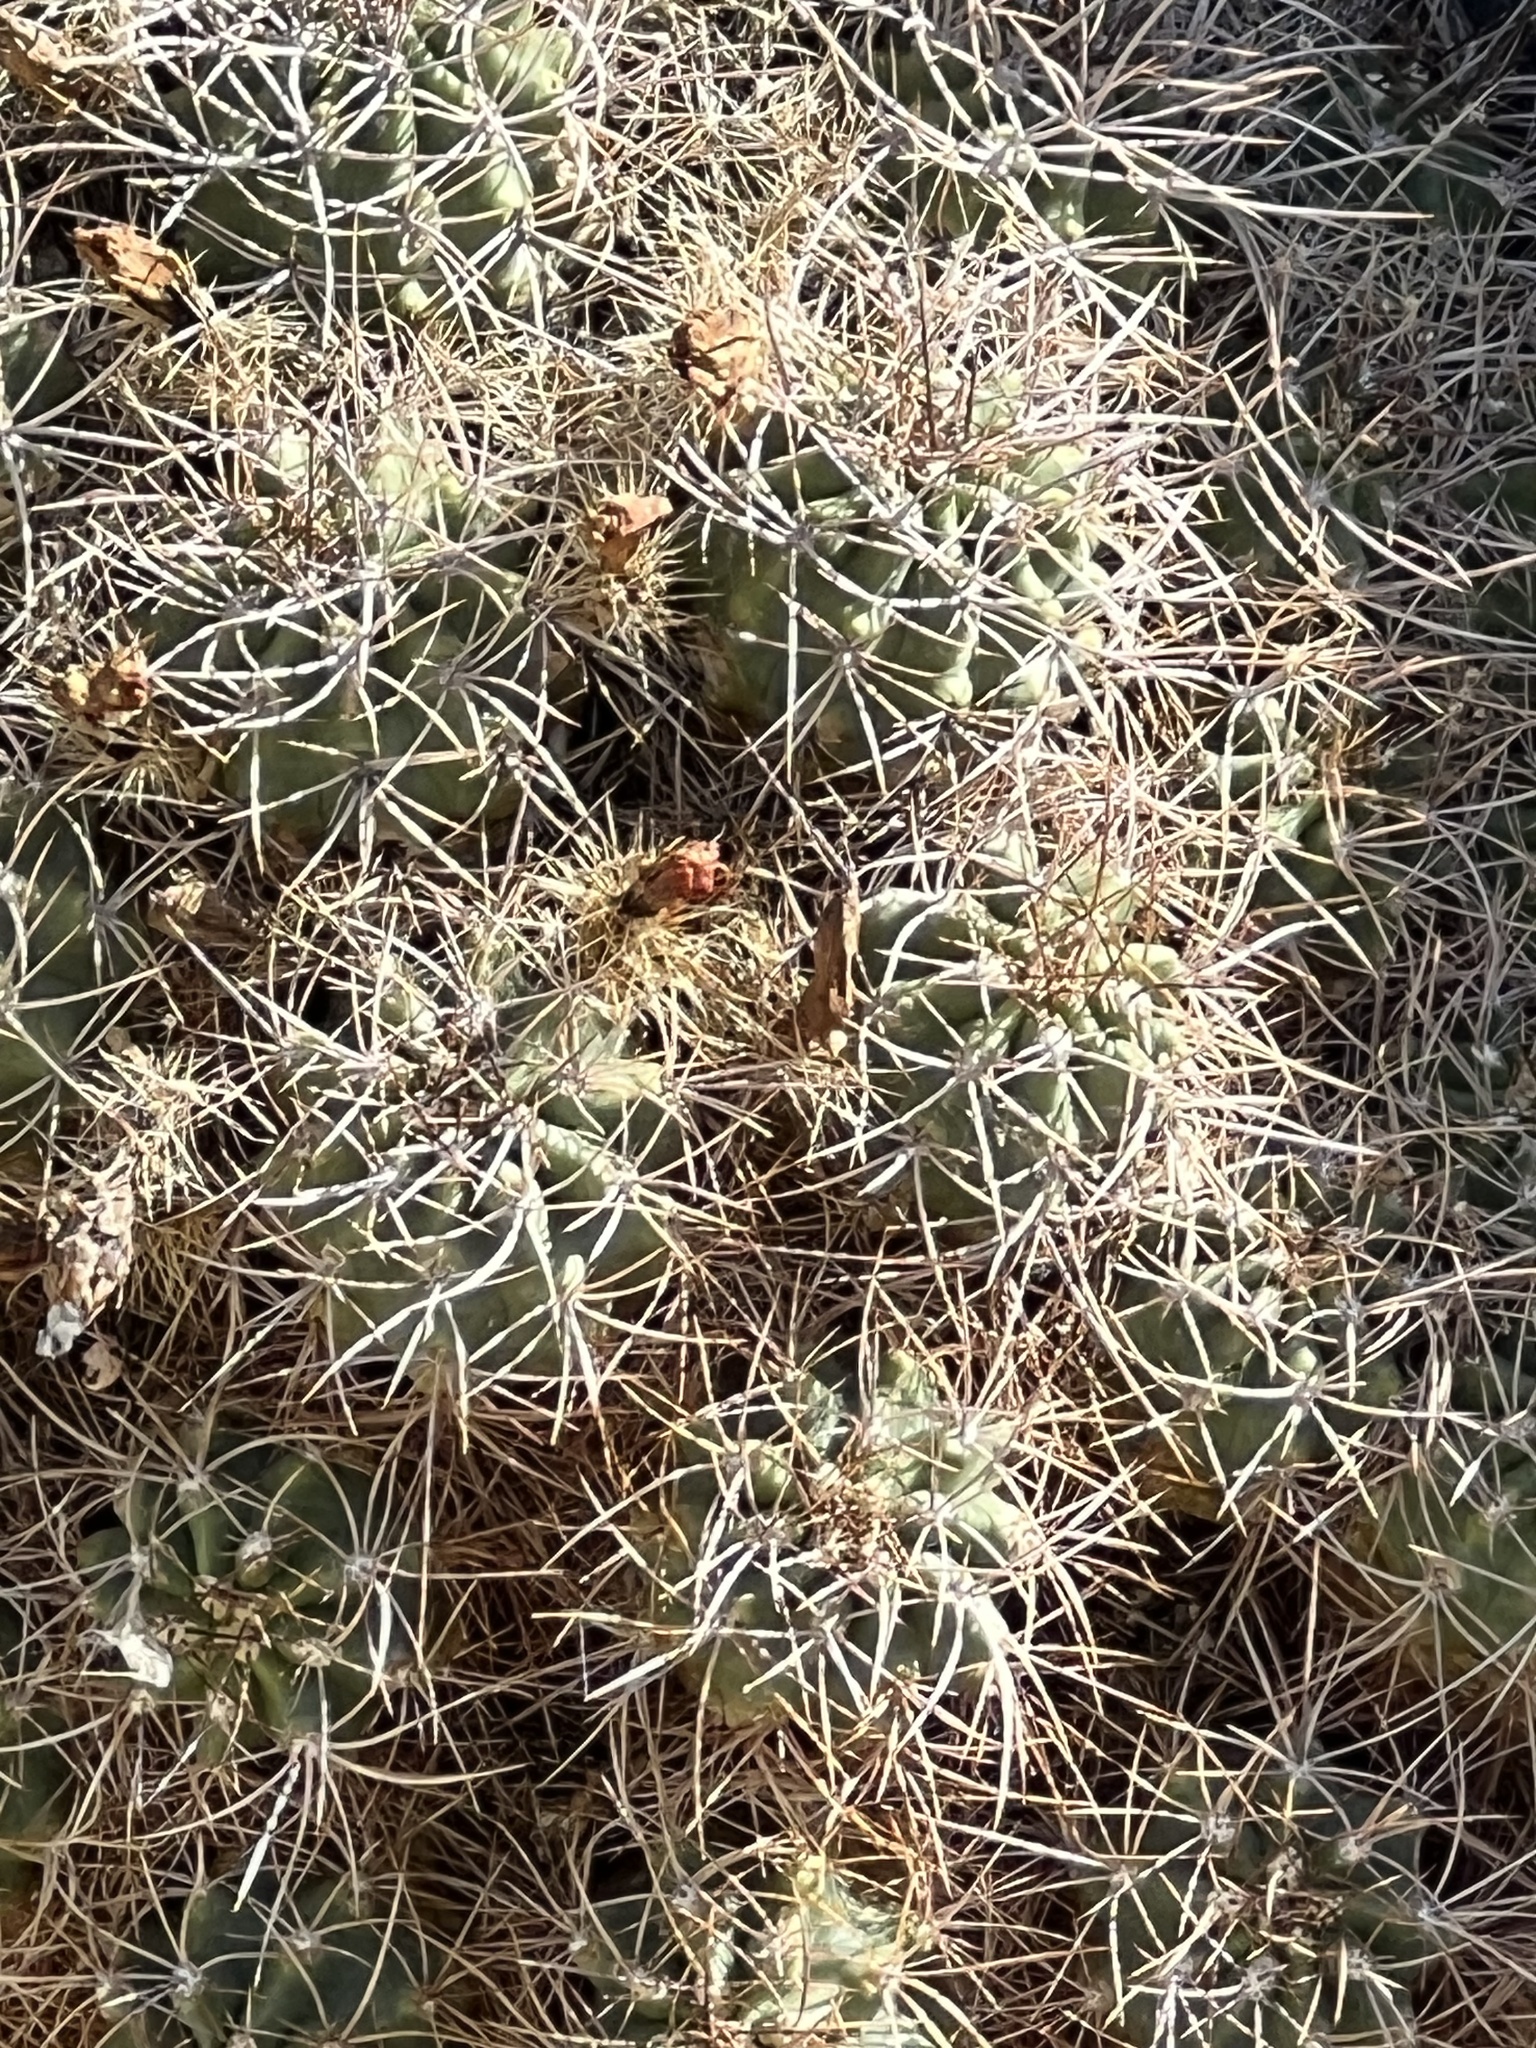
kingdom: Plantae
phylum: Tracheophyta
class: Magnoliopsida
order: Caryophyllales
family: Cactaceae
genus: Echinocereus
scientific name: Echinocereus triglochidiatus
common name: Claretcup hedgehog
